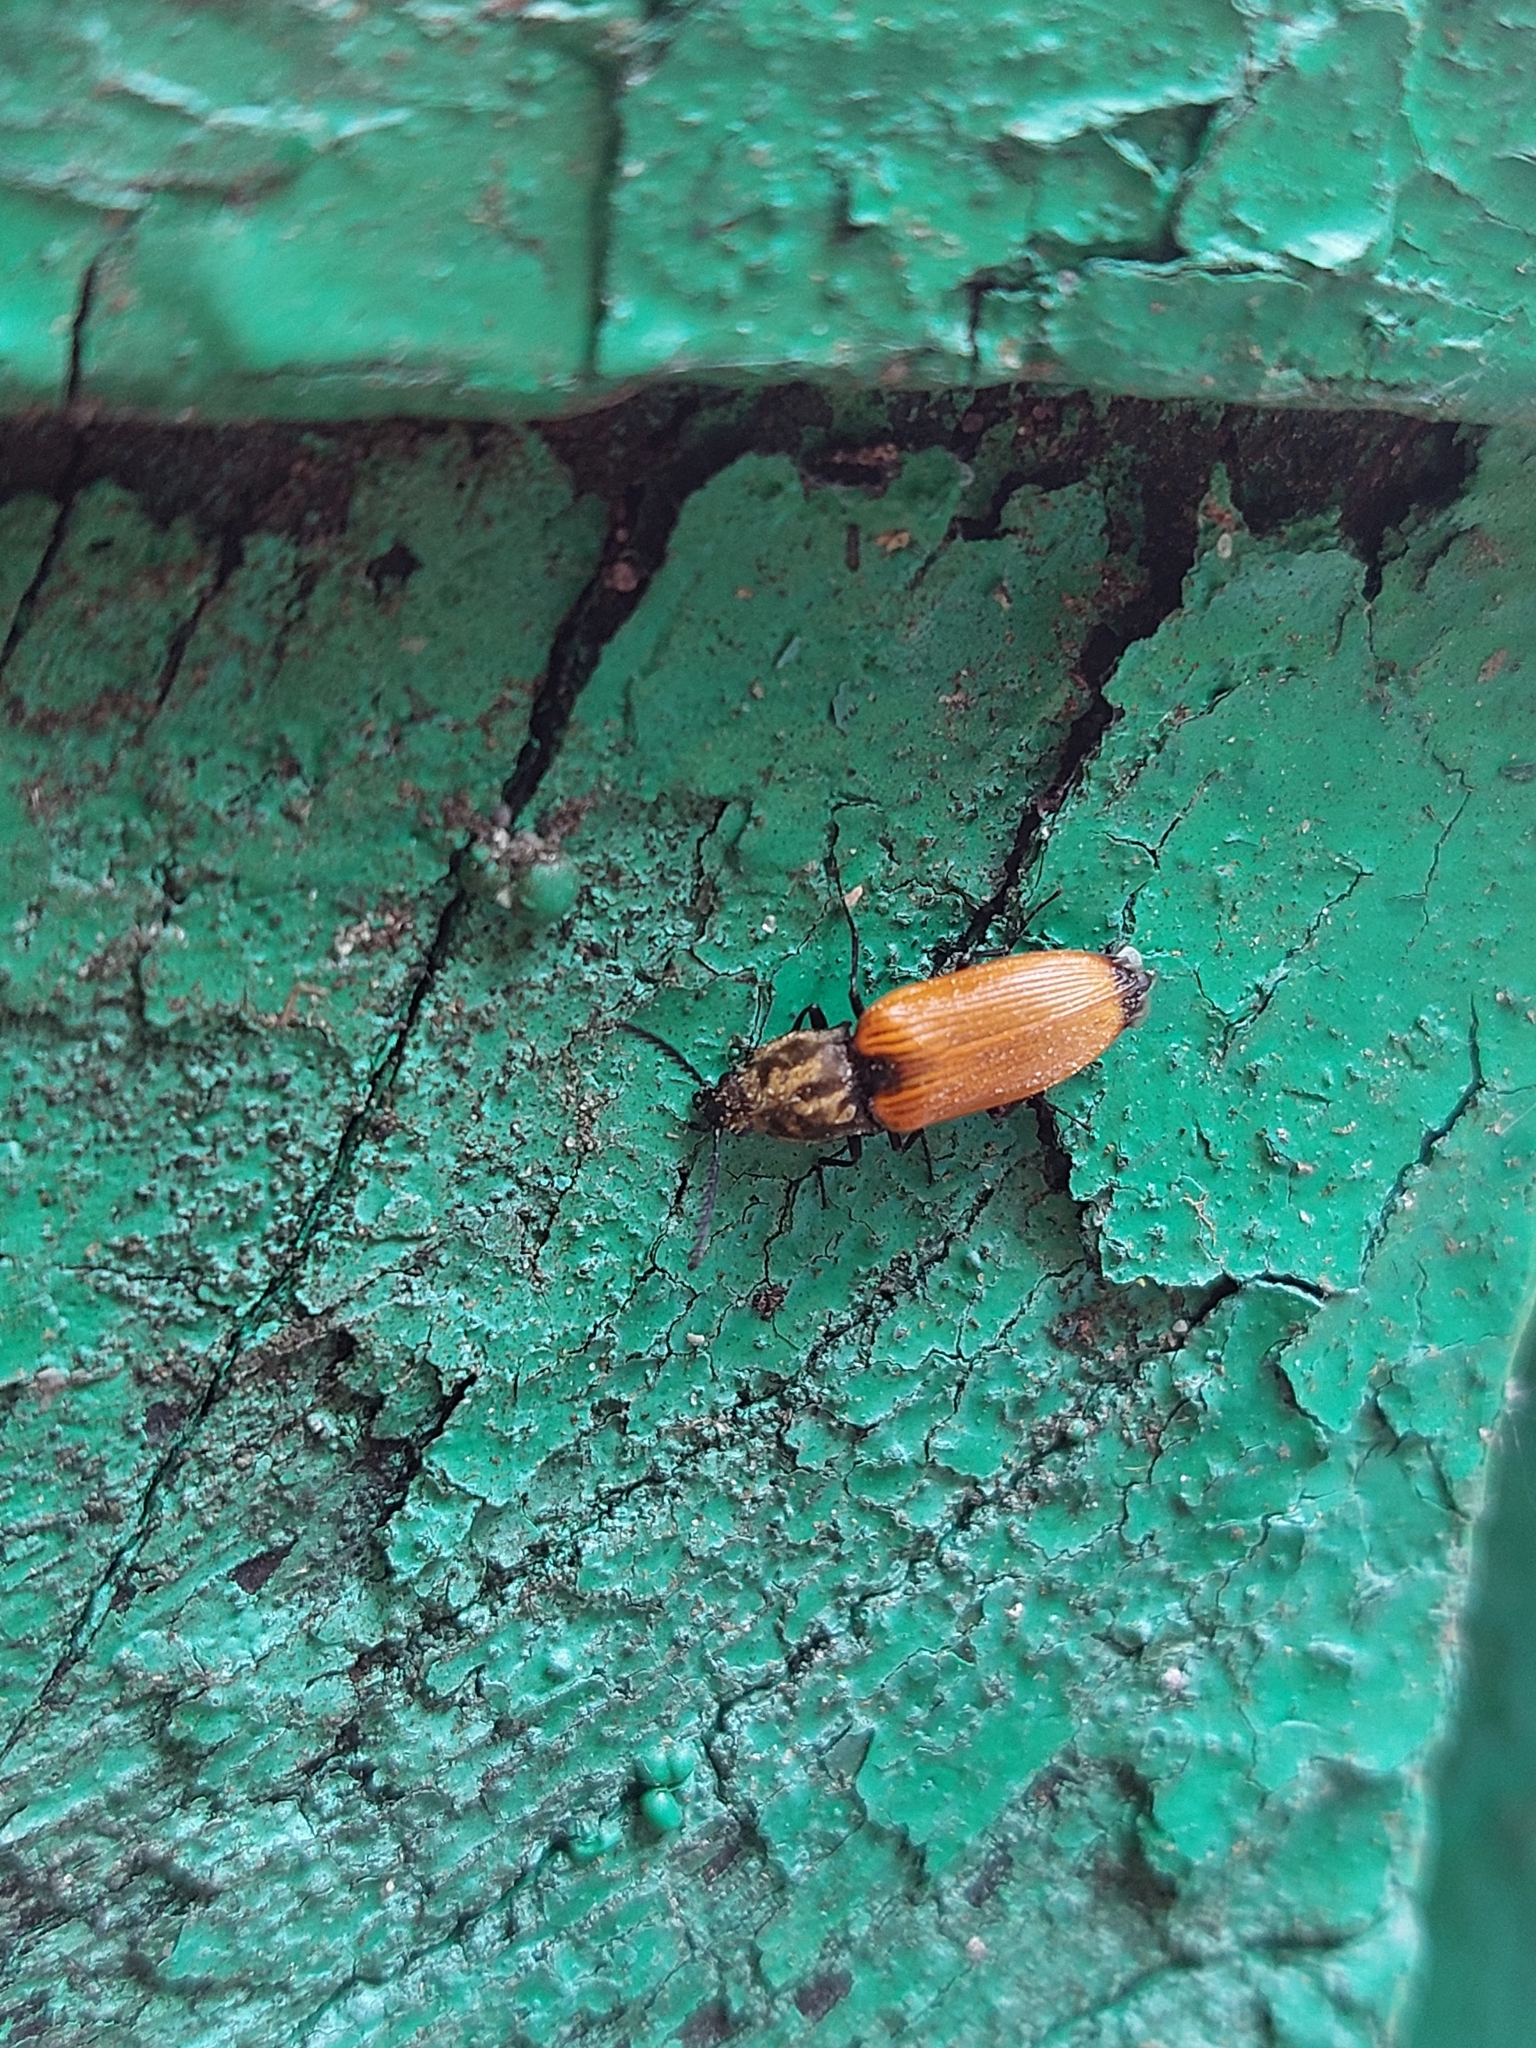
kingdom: Animalia
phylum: Arthropoda
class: Insecta
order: Coleoptera
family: Elateridae
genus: Anostirus
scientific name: Anostirus castaneus
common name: Chestnut coloured click beetle
